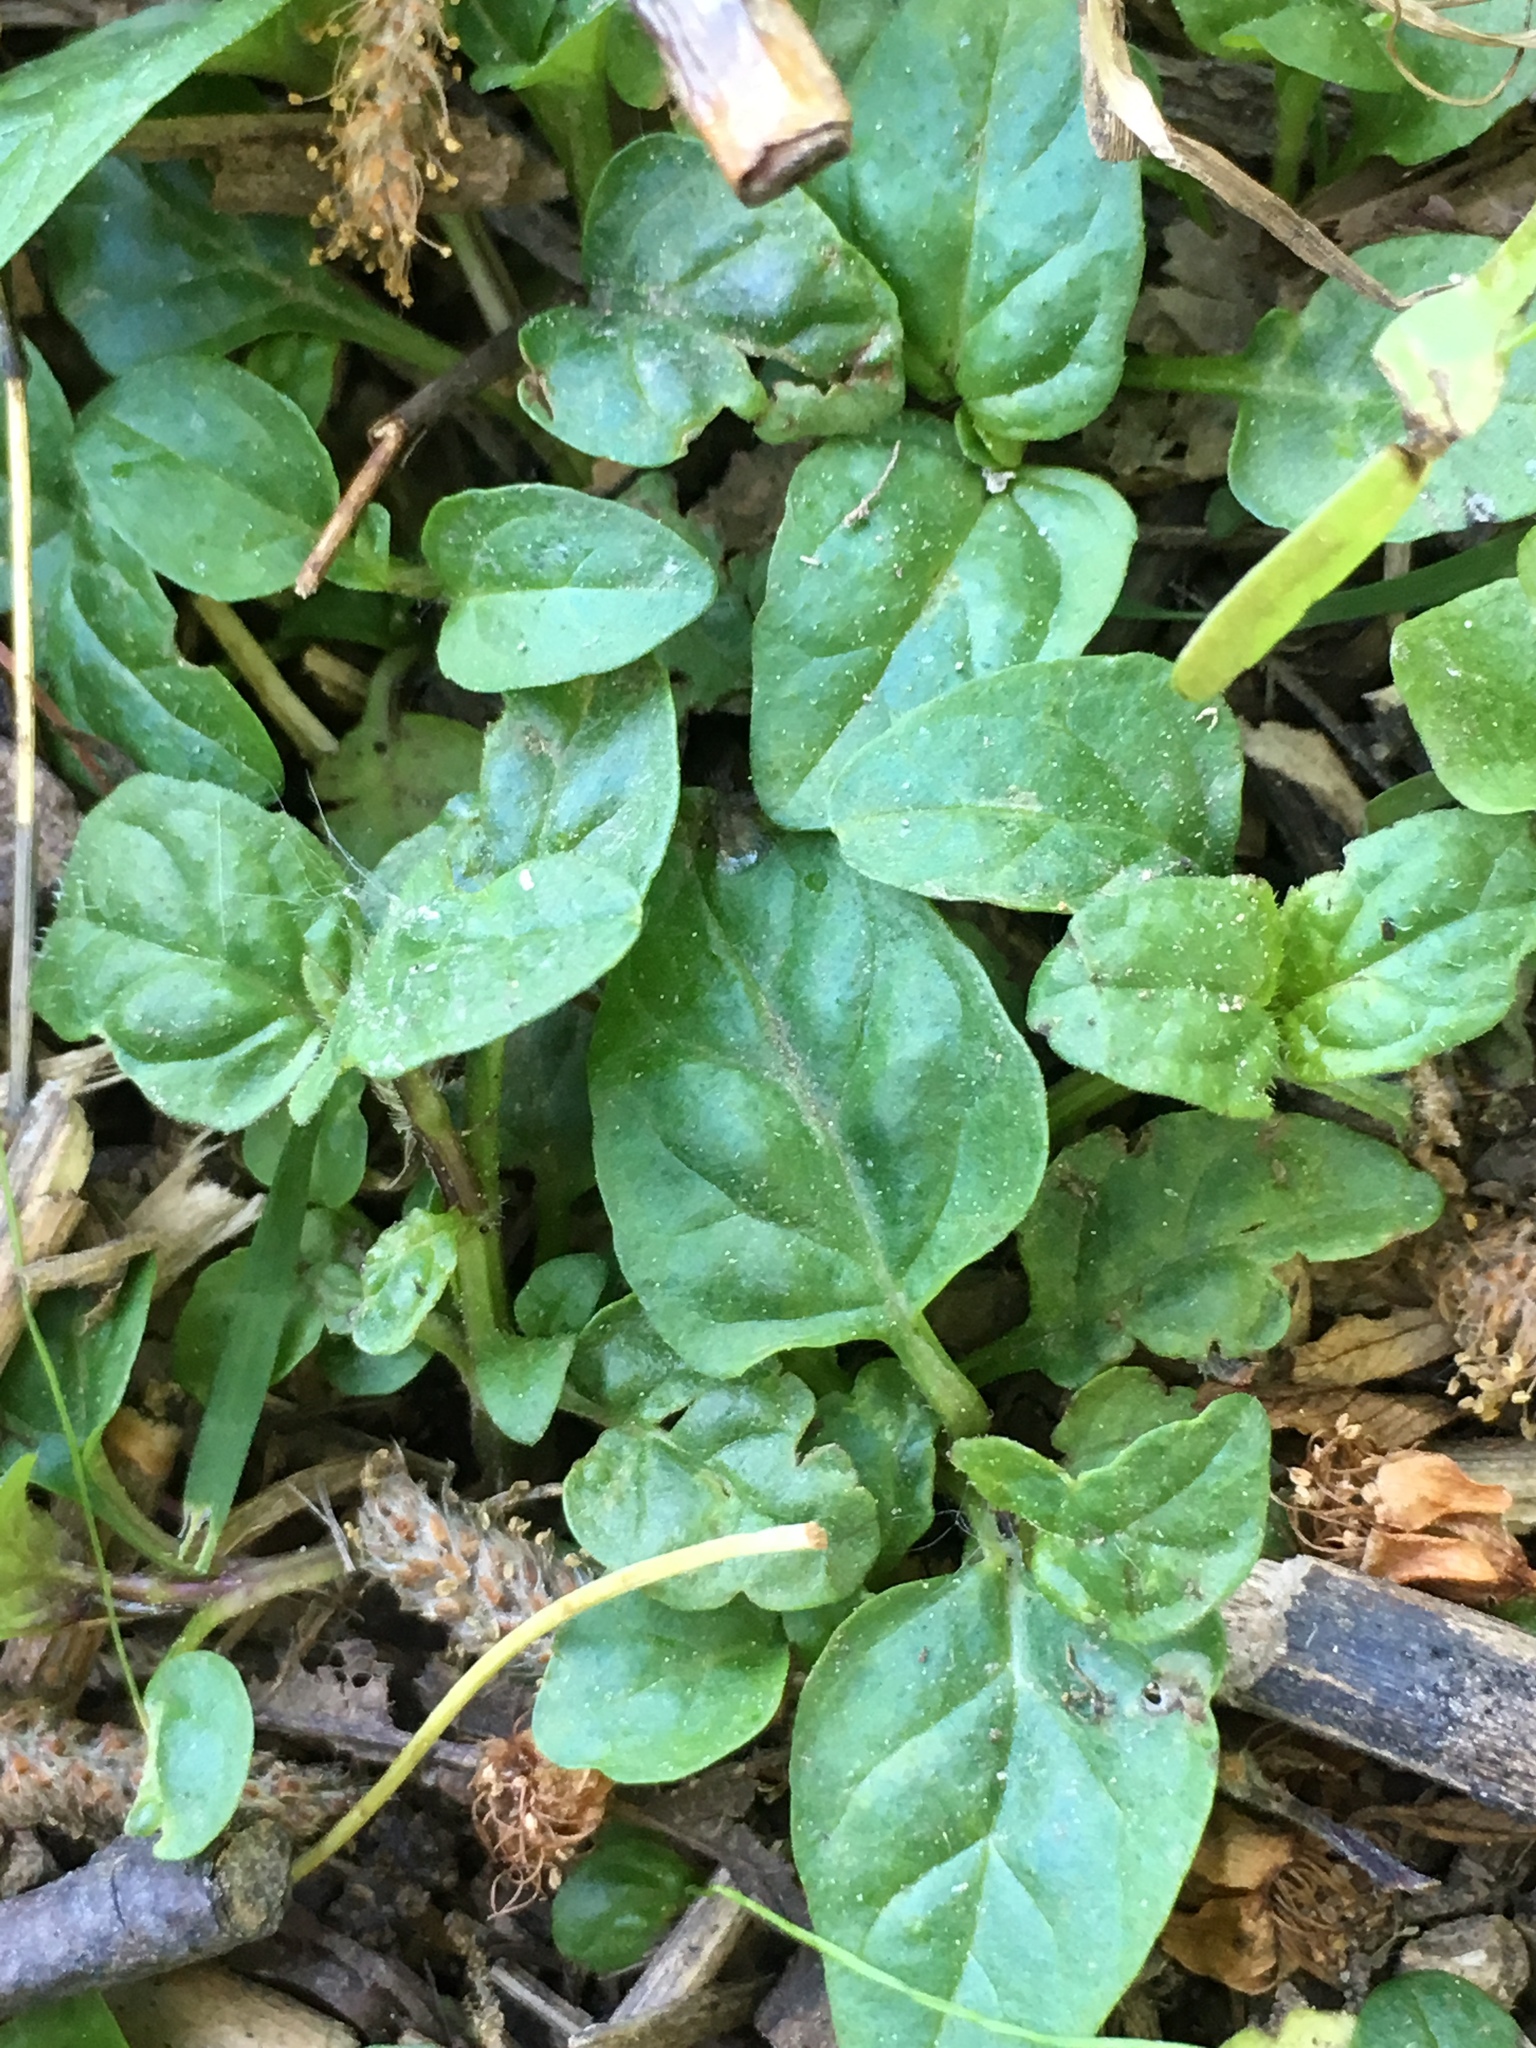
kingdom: Plantae
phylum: Tracheophyta
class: Magnoliopsida
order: Lamiales
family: Lamiaceae
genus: Prunella
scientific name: Prunella vulgaris
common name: Heal-all
